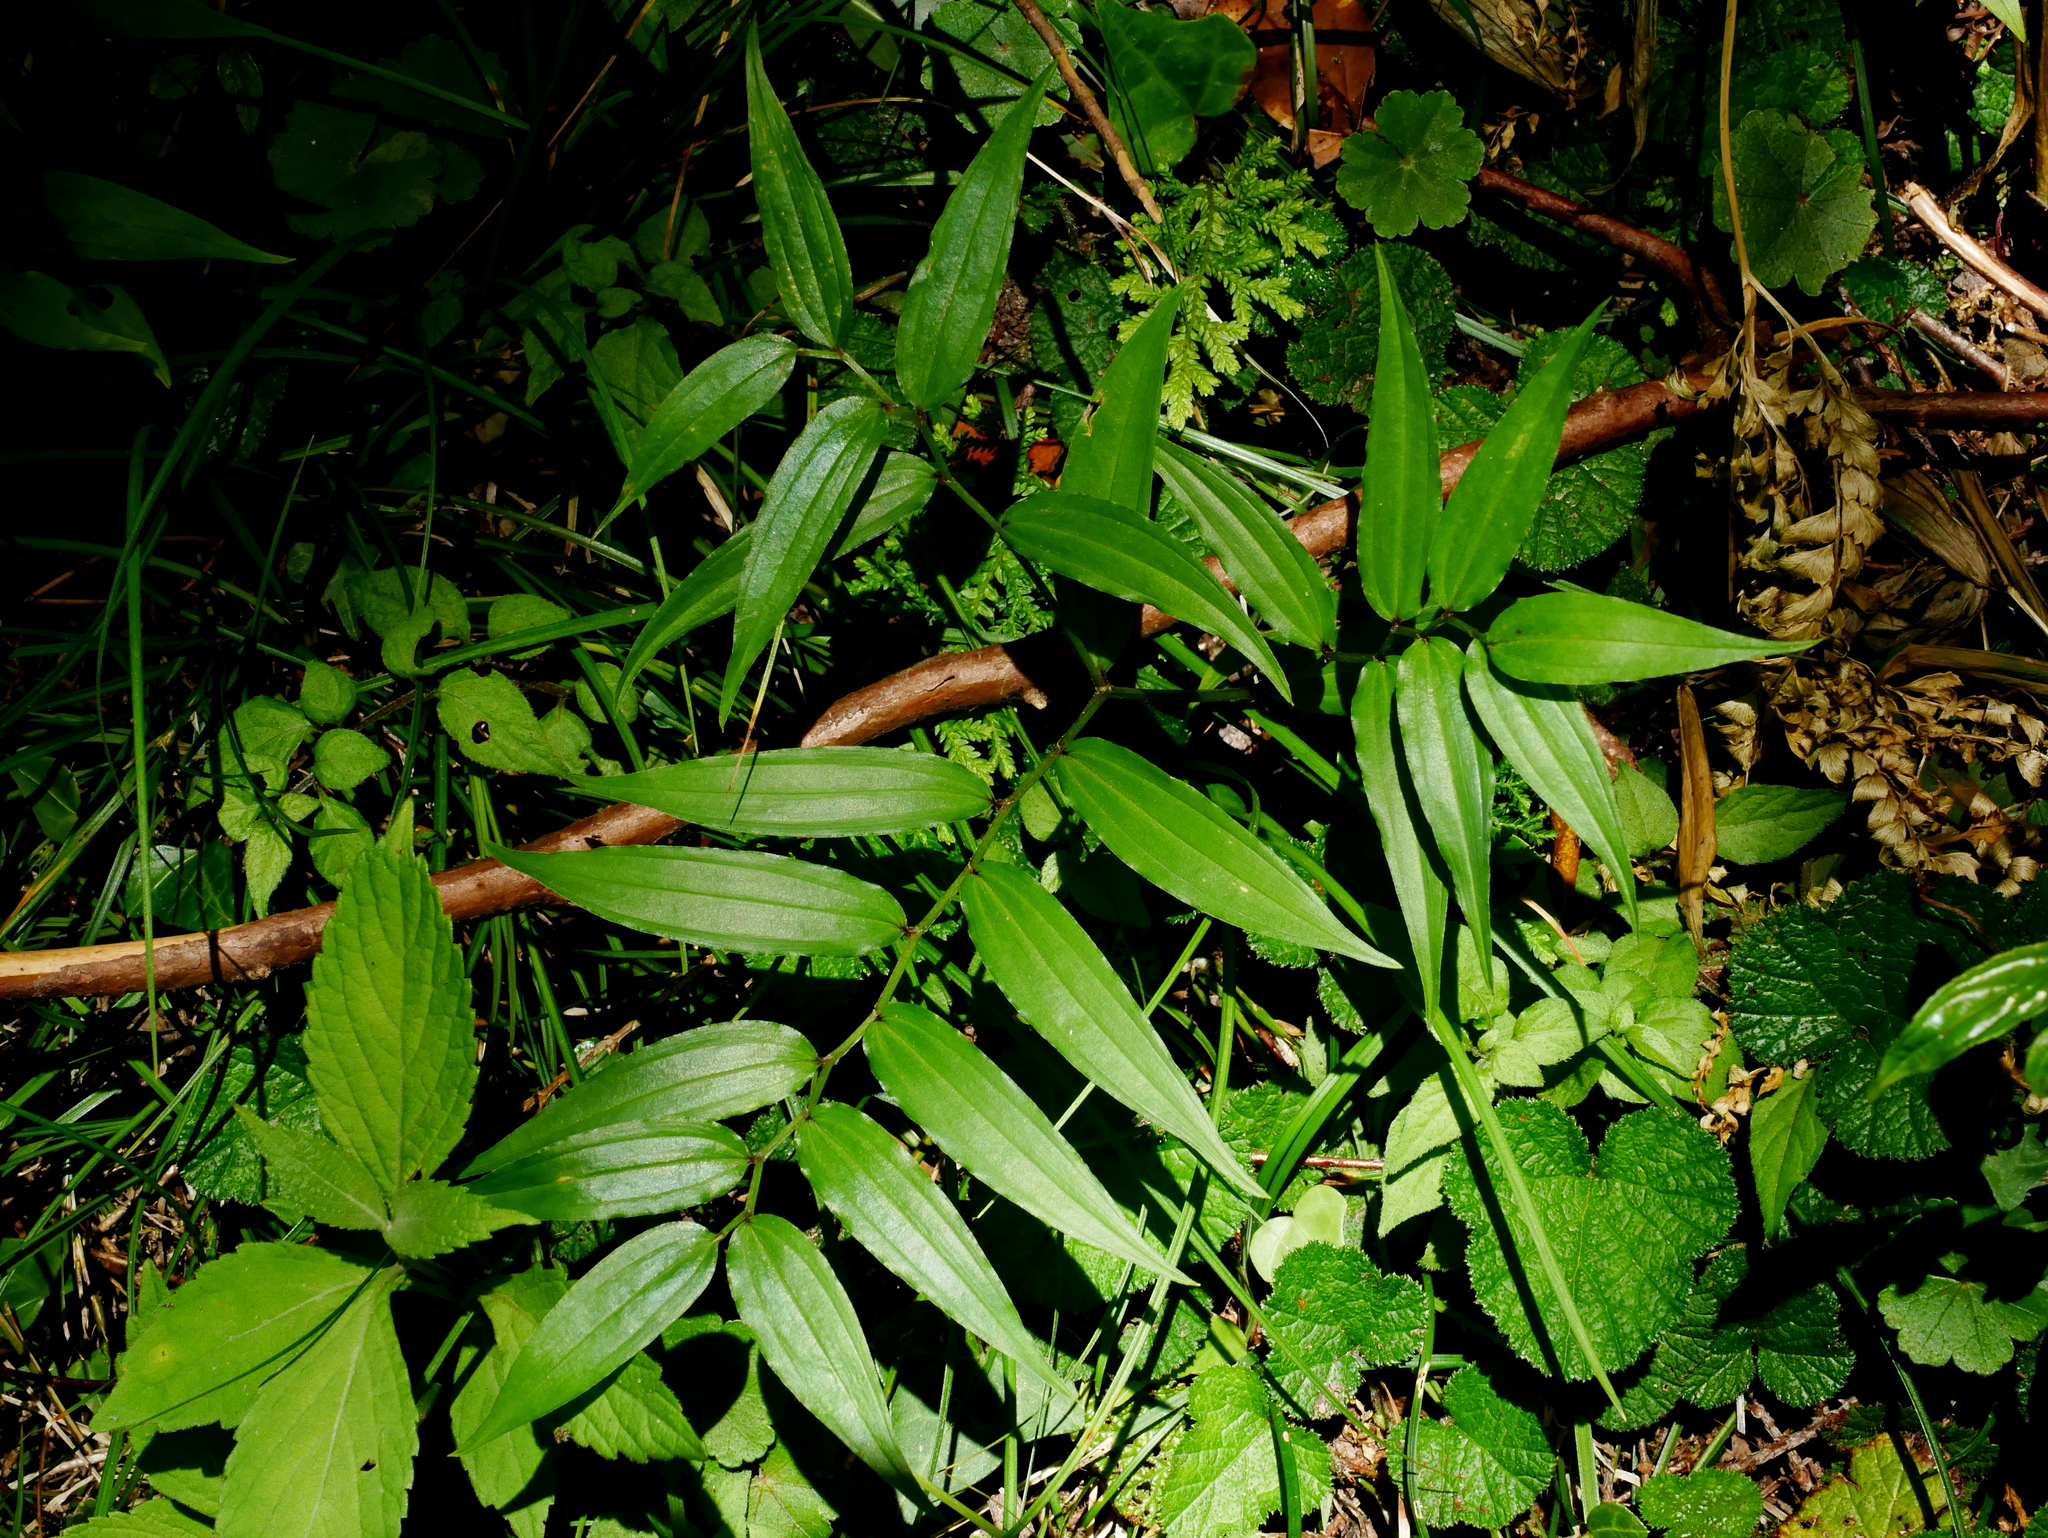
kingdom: Plantae
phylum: Tracheophyta
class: Liliopsida
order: Liliales
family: Colchicaceae
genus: Disporum
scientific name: Disporum sessile
